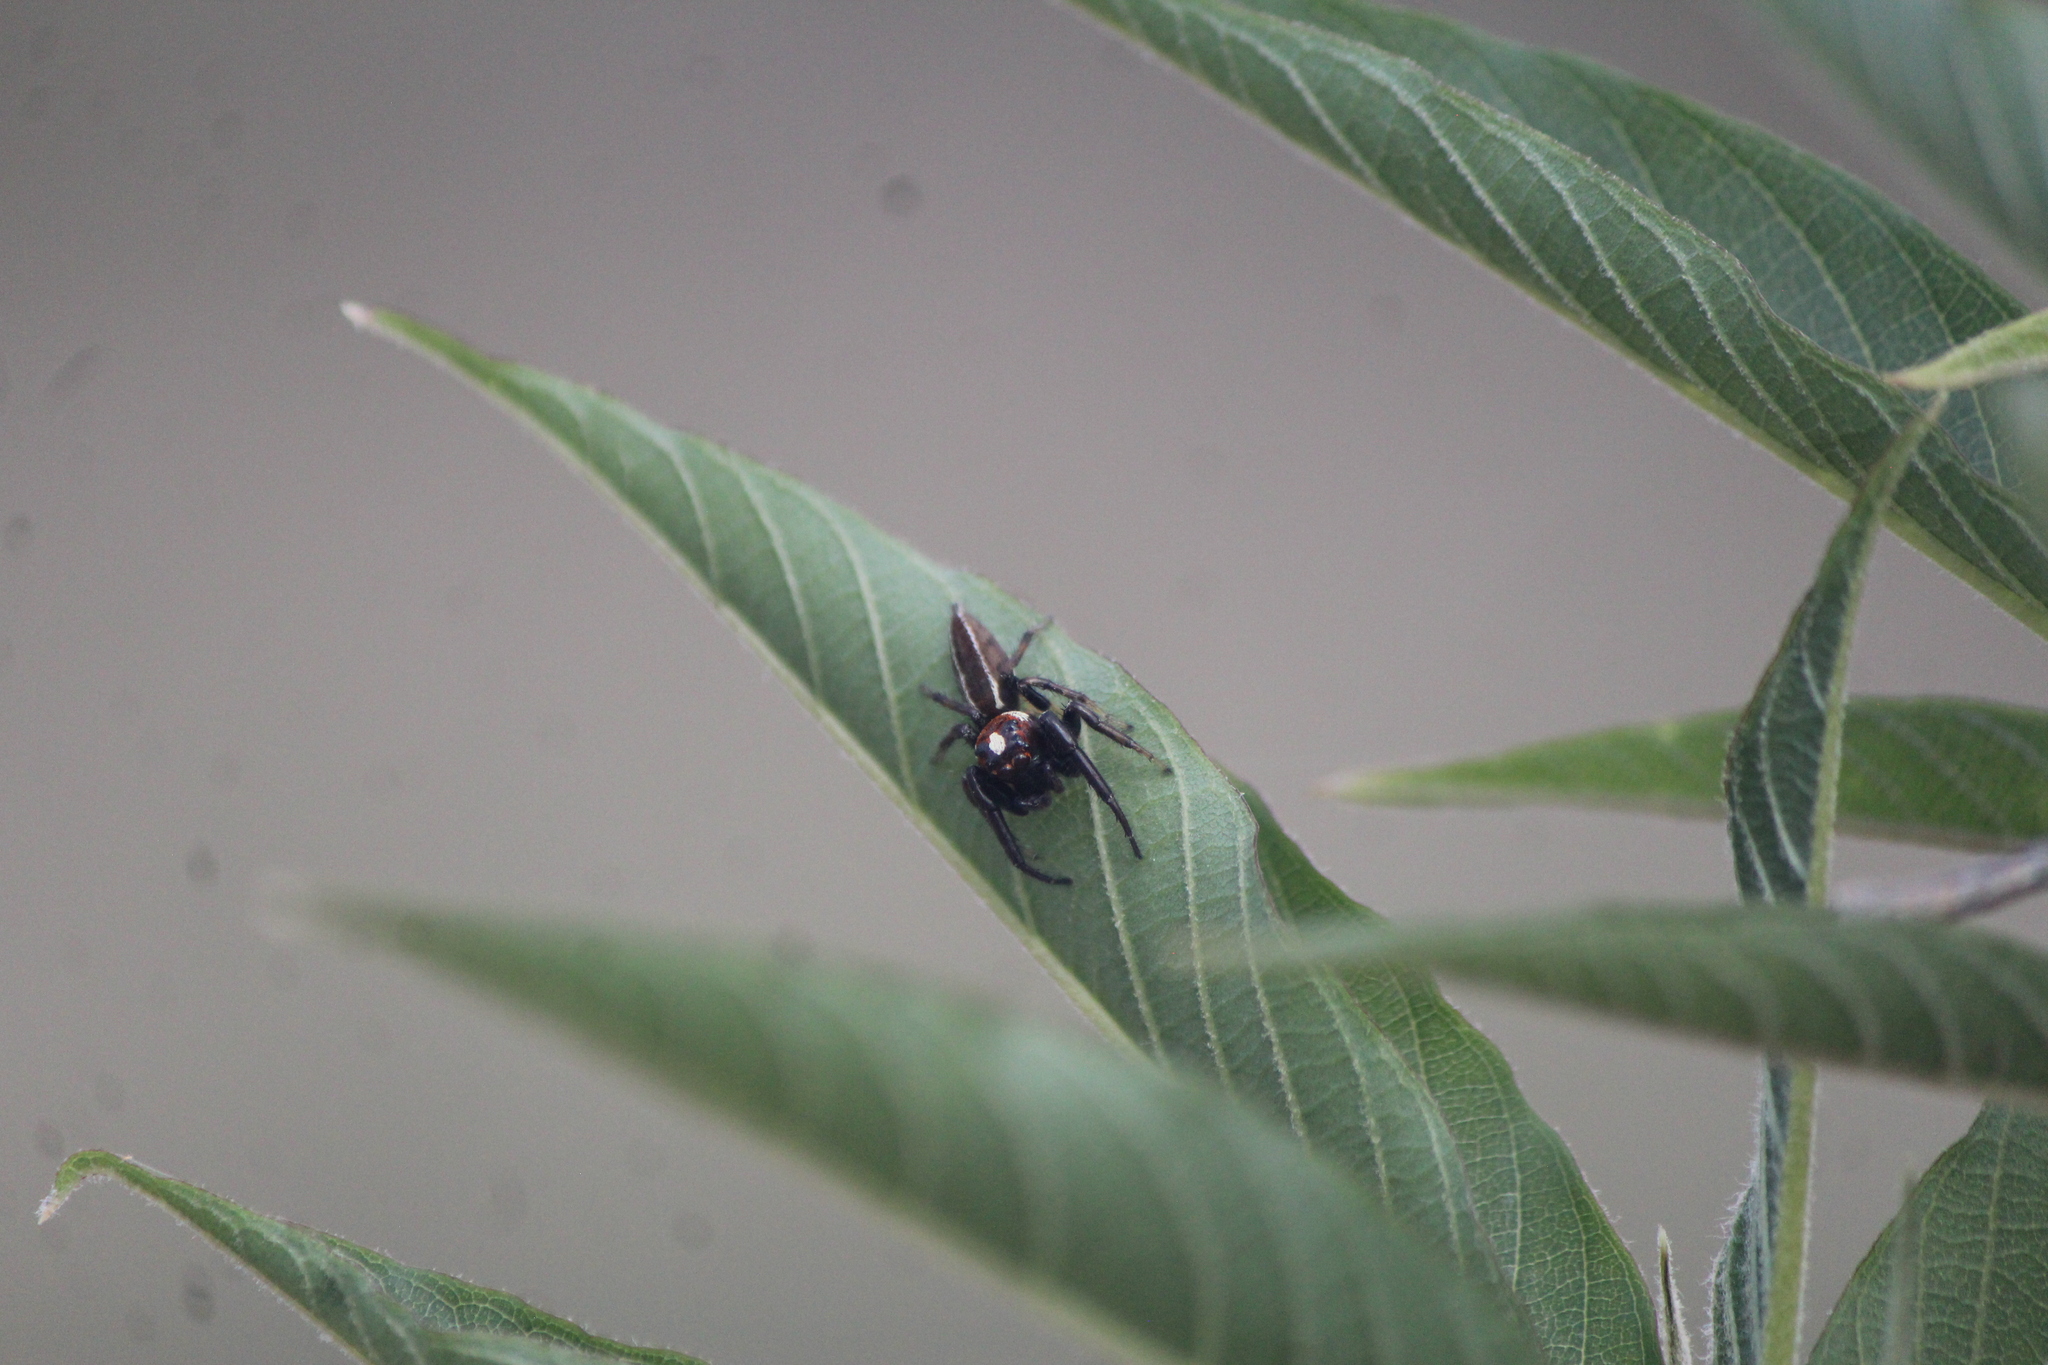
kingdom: Animalia
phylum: Arthropoda
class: Arachnida
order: Araneae
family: Salticidae
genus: Colonus
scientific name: Colonus sylvanus
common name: Jumping spiders
